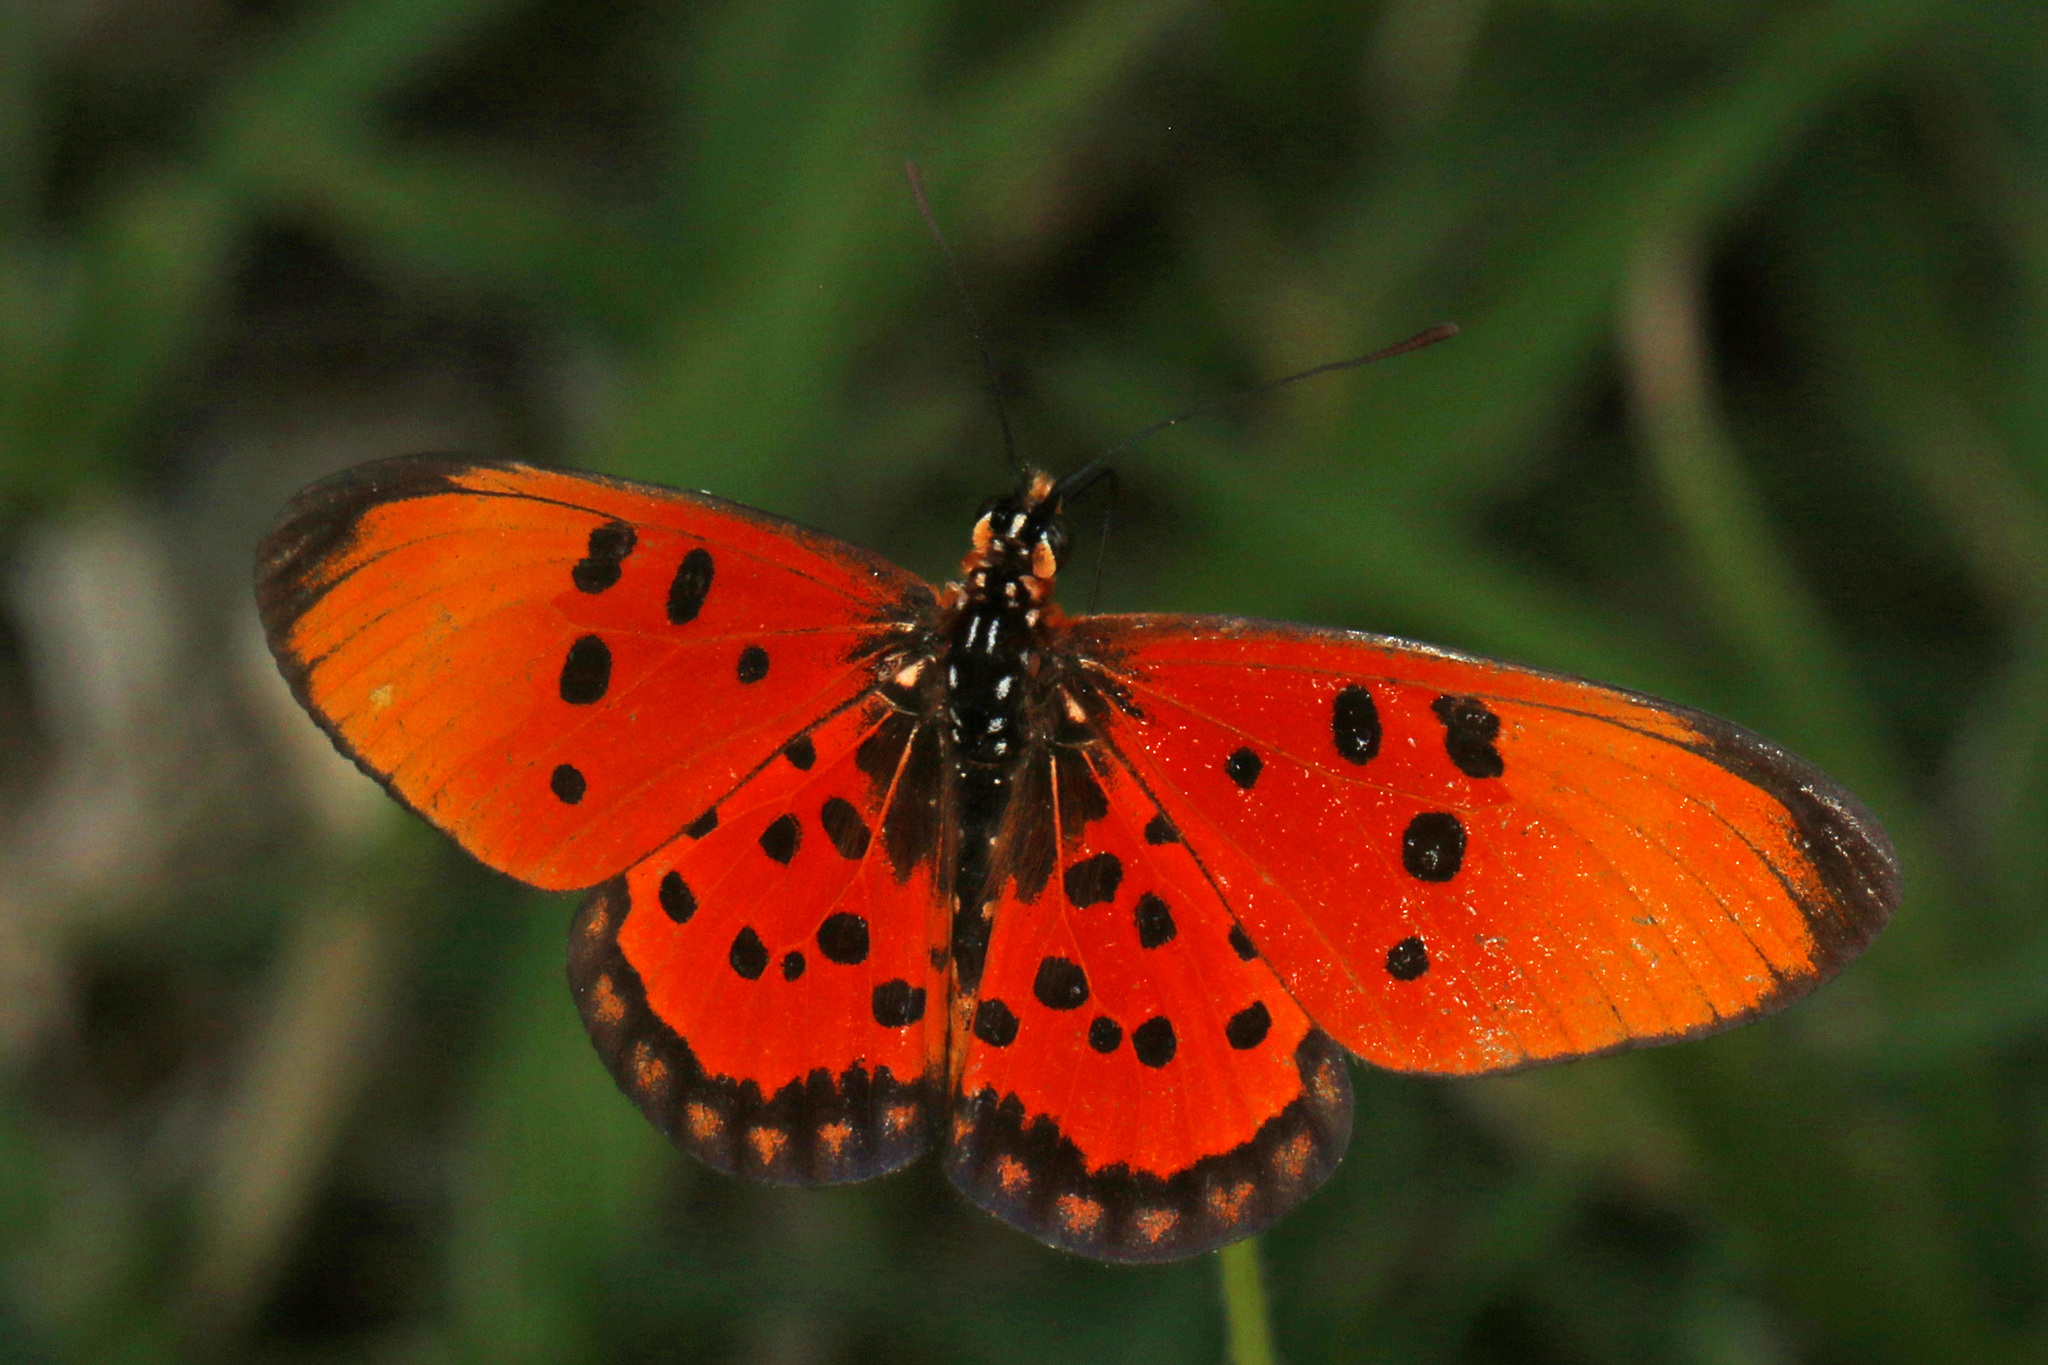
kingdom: Animalia
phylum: Arthropoda
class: Insecta
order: Lepidoptera
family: Nymphalidae
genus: Rubraea
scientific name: Rubraea
